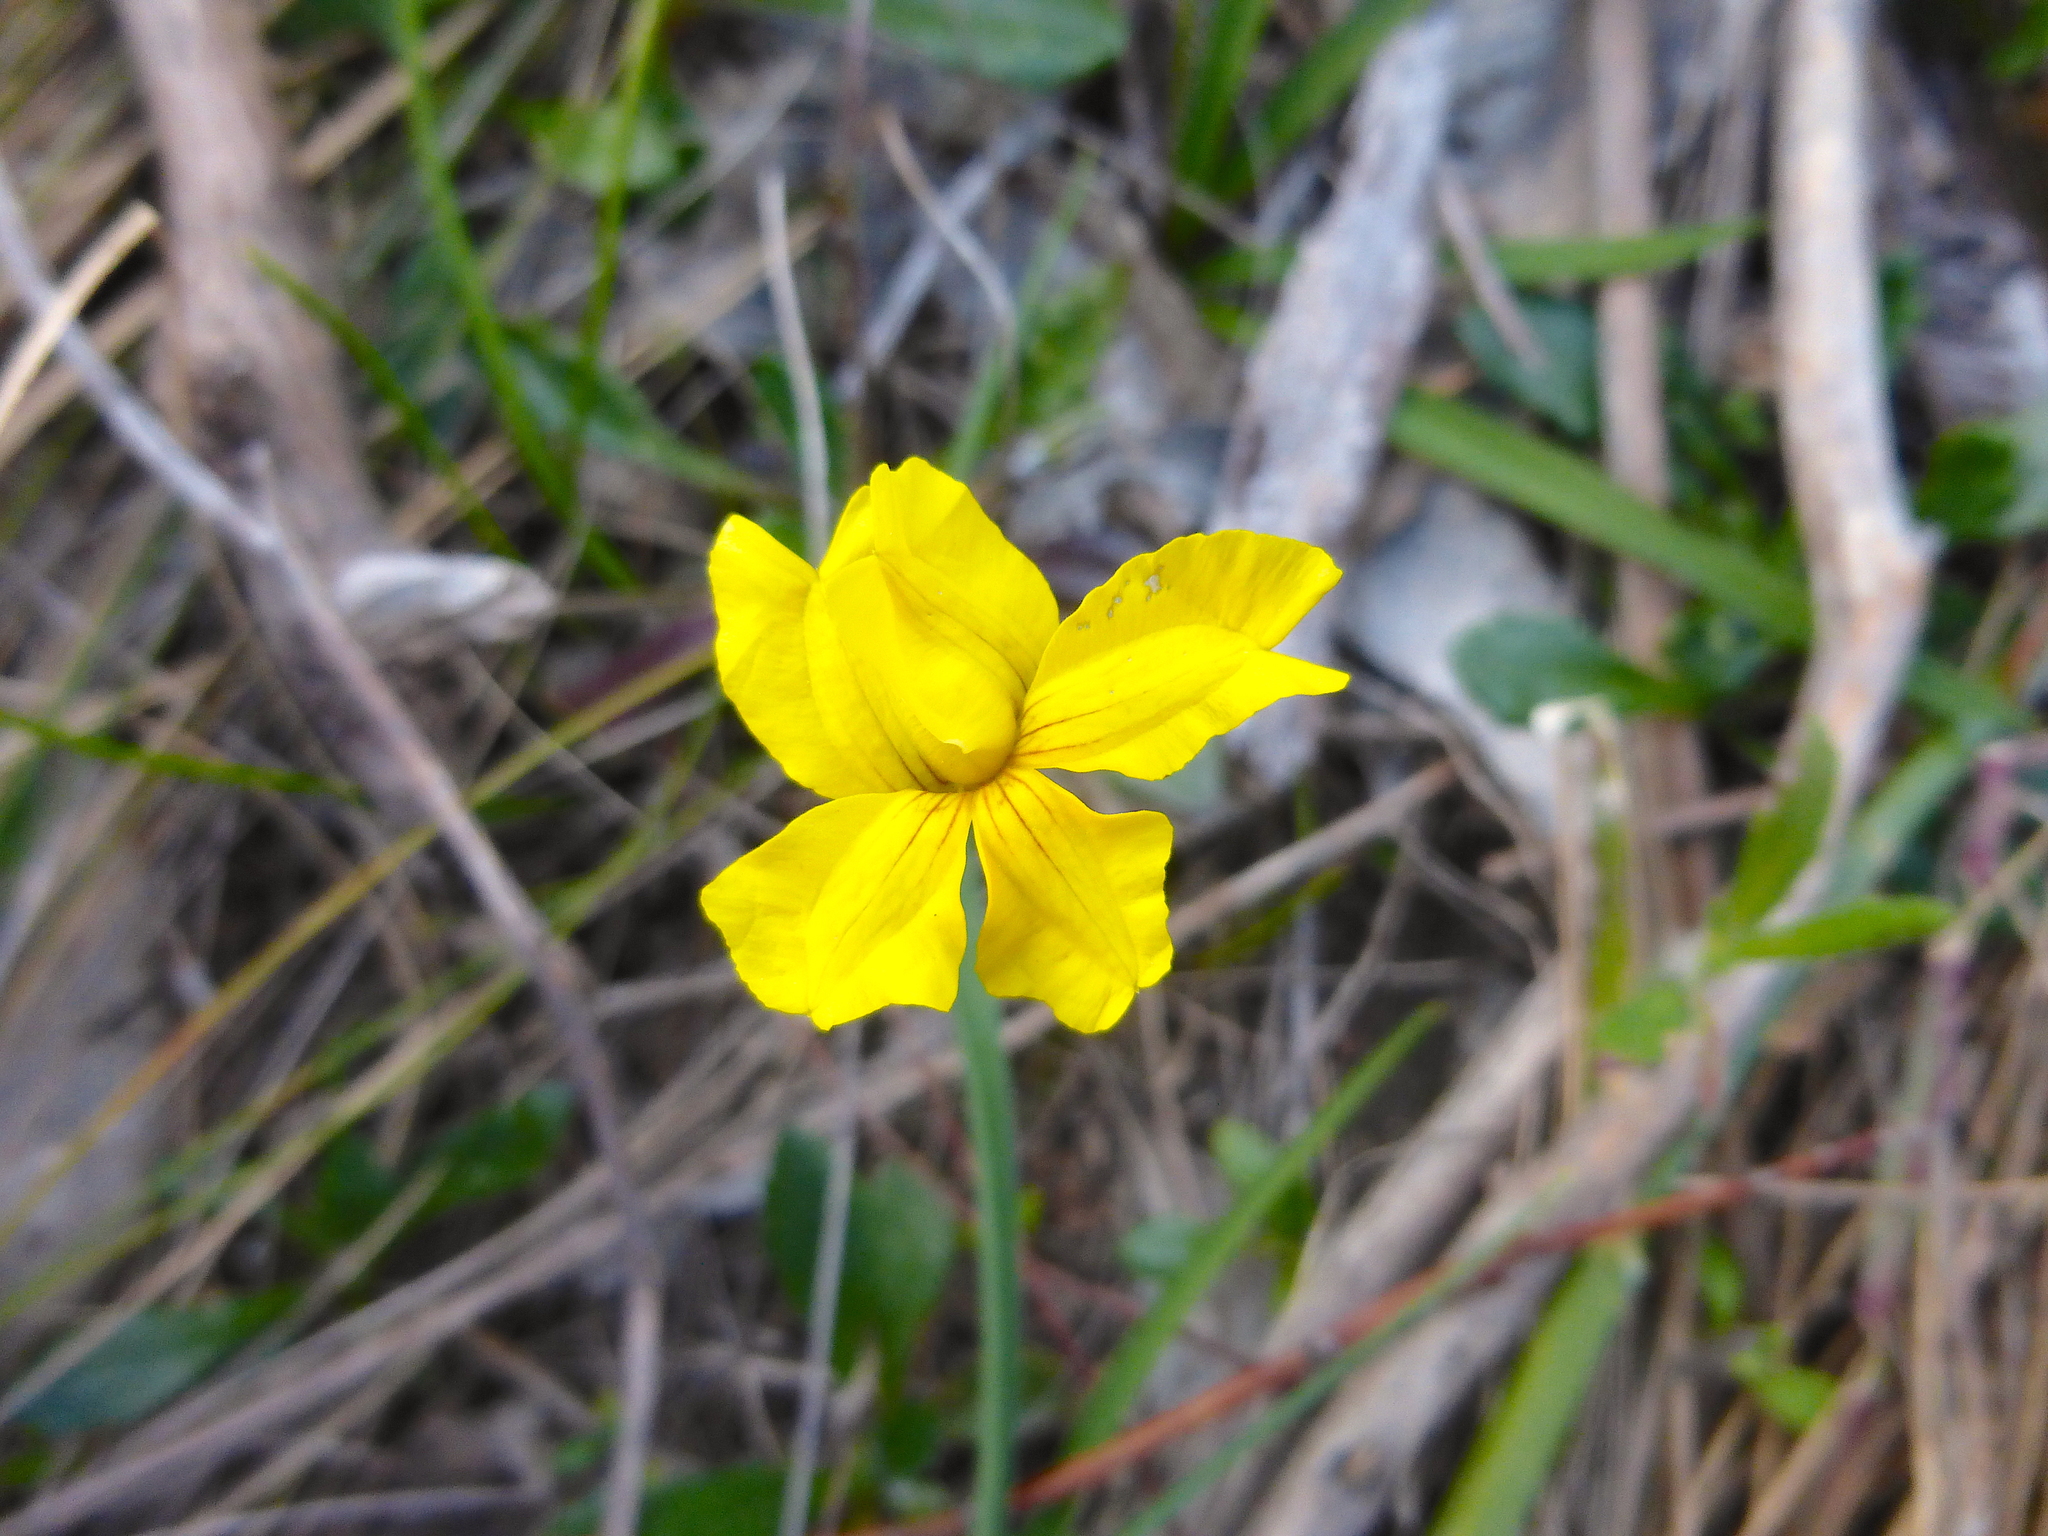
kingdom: Plantae
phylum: Tracheophyta
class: Magnoliopsida
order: Asterales
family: Goodeniaceae
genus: Goodenia
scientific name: Goodenia blackiana
